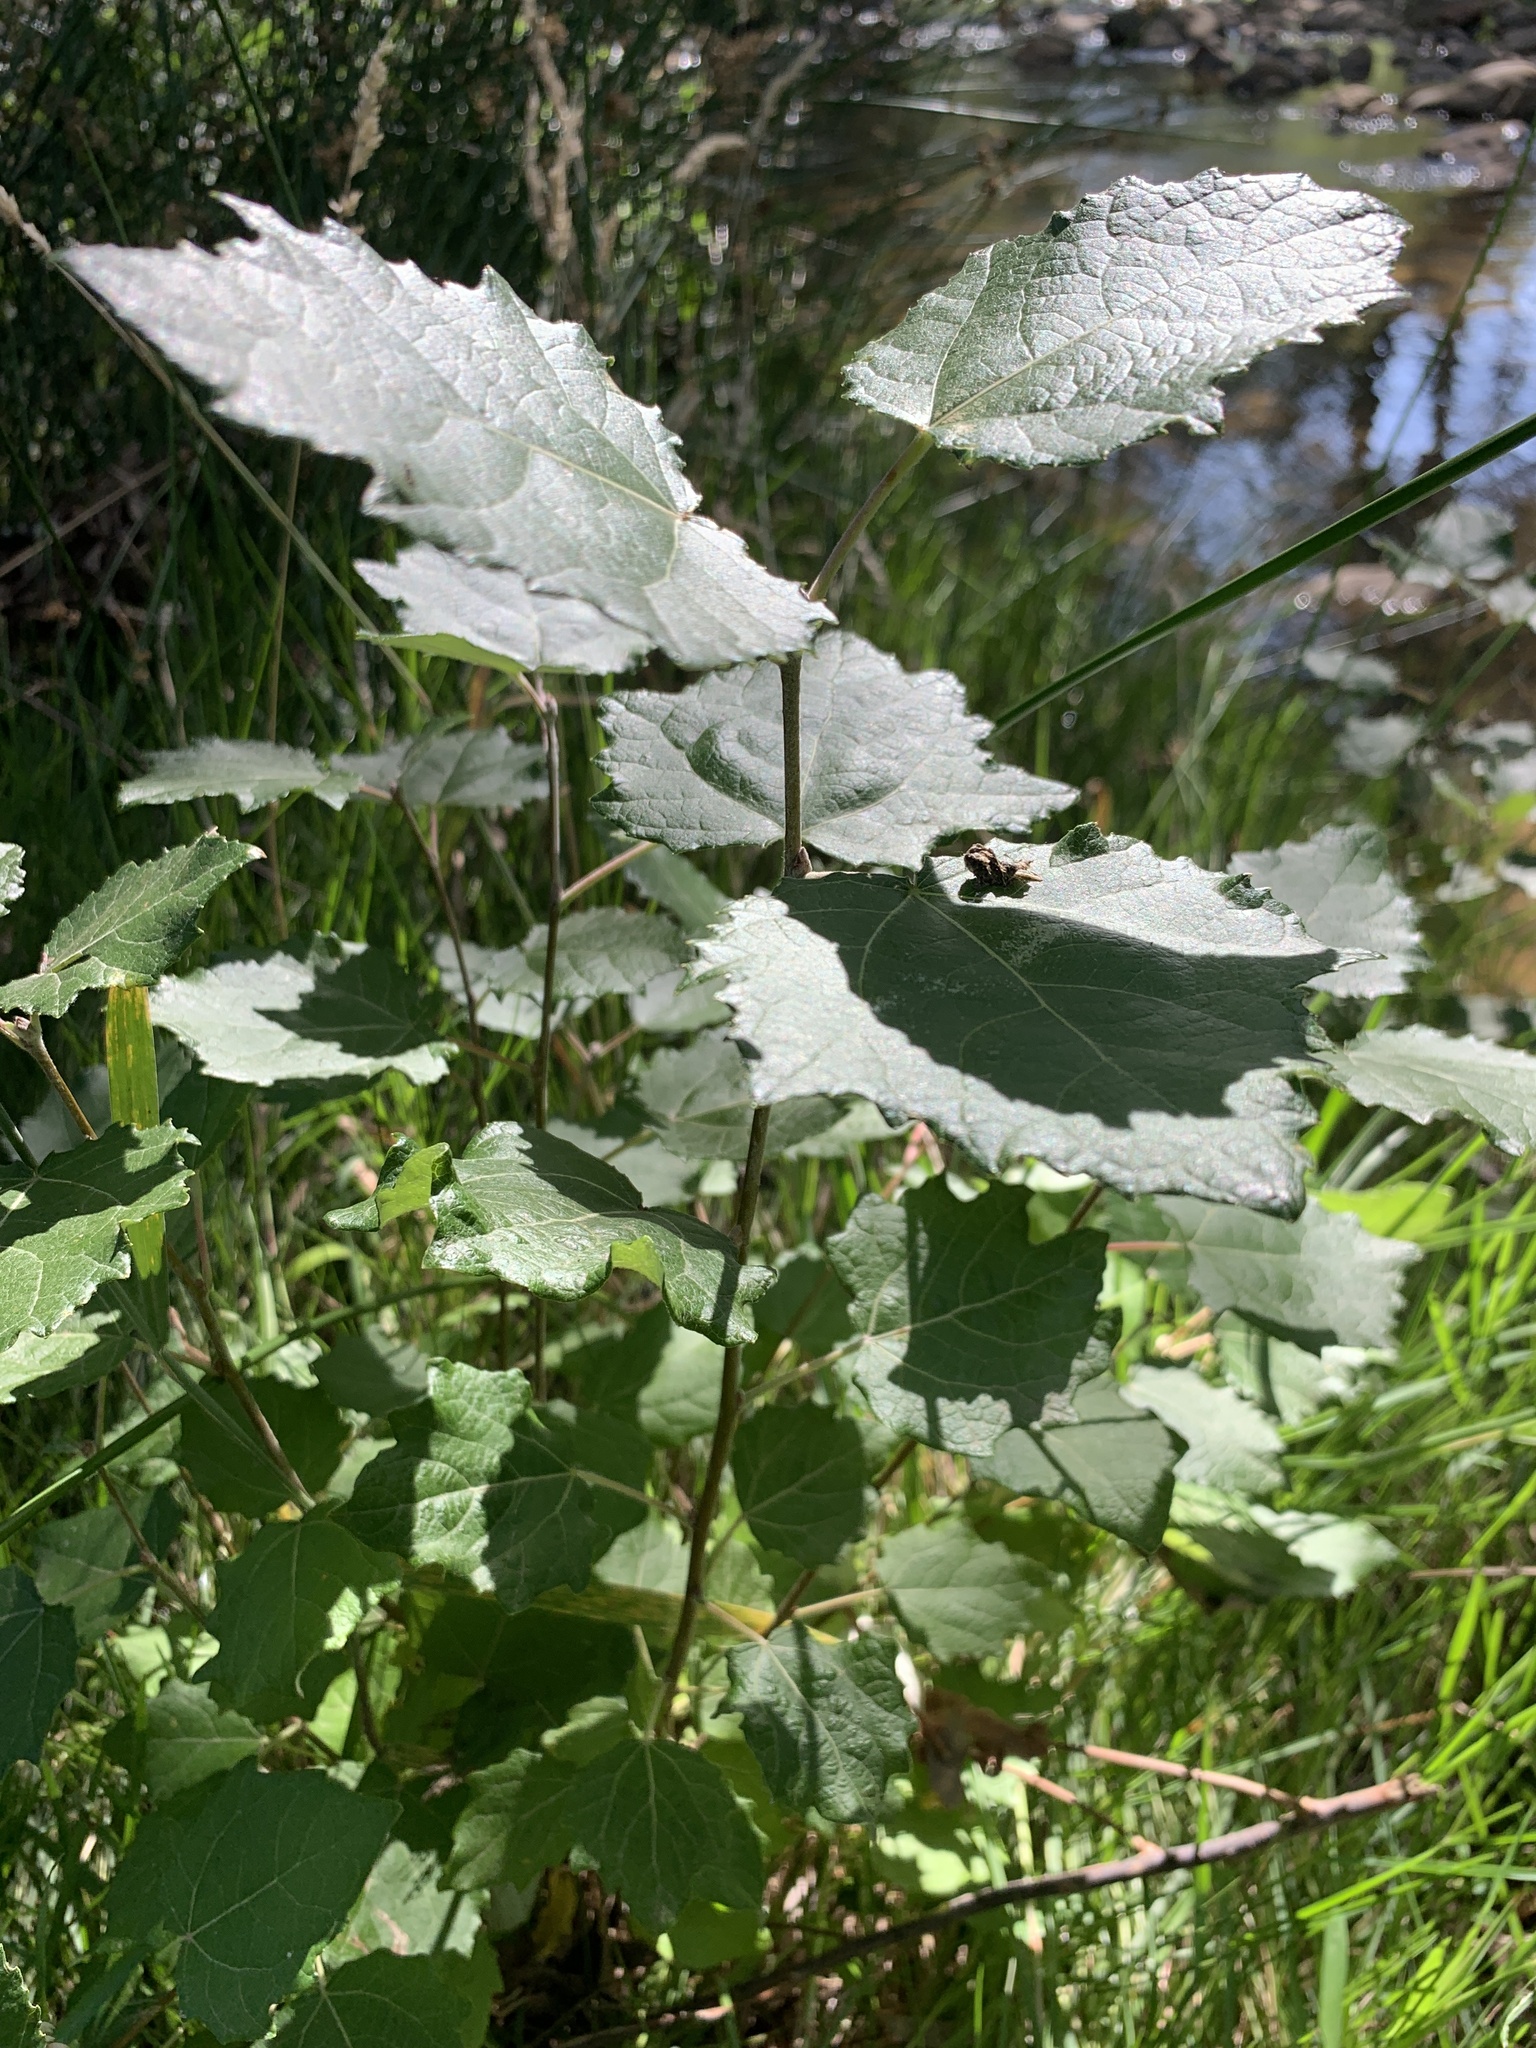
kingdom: Plantae
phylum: Tracheophyta
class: Magnoliopsida
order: Malpighiales
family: Salicaceae
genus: Populus
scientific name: Populus canescens
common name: Gray poplar
